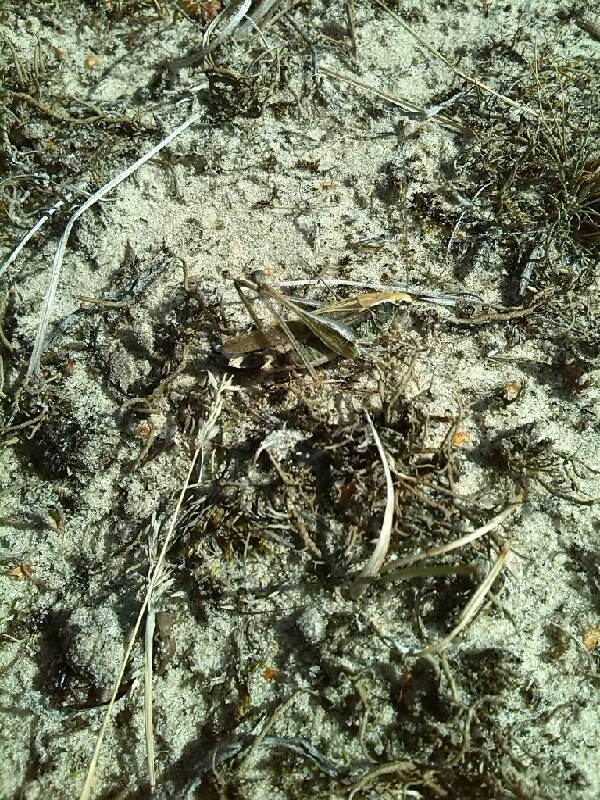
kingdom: Animalia
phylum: Arthropoda
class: Insecta
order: Orthoptera
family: Tettigoniidae
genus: Platycleis
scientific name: Platycleis albopunctata
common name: Grey bush-cricket
